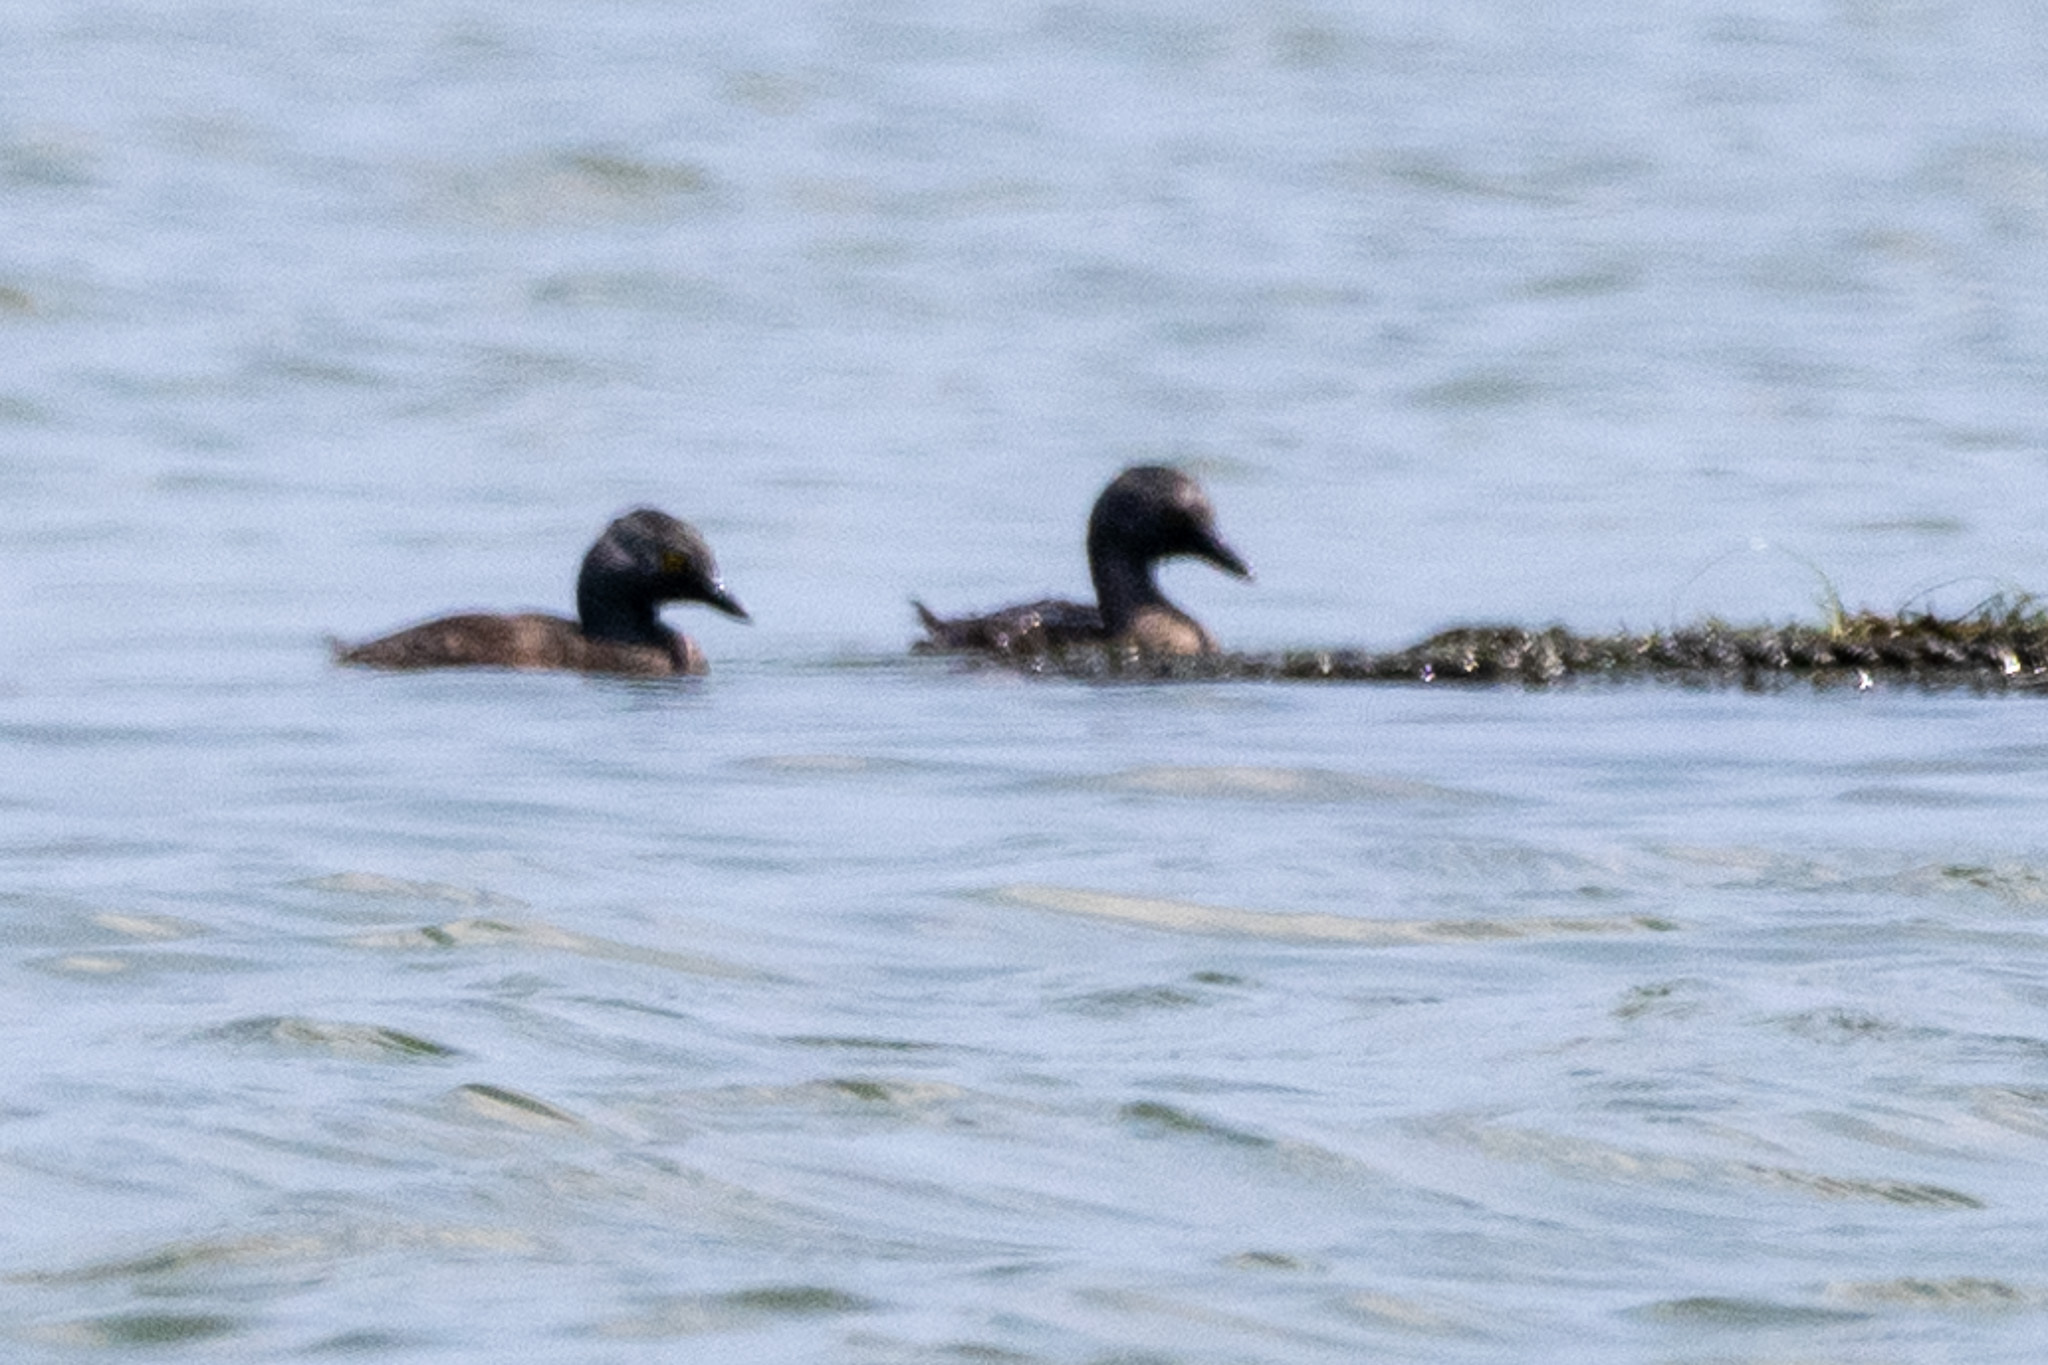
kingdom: Animalia
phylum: Chordata
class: Aves
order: Podicipediformes
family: Podicipedidae
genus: Tachybaptus
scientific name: Tachybaptus dominicus
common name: Least grebe
